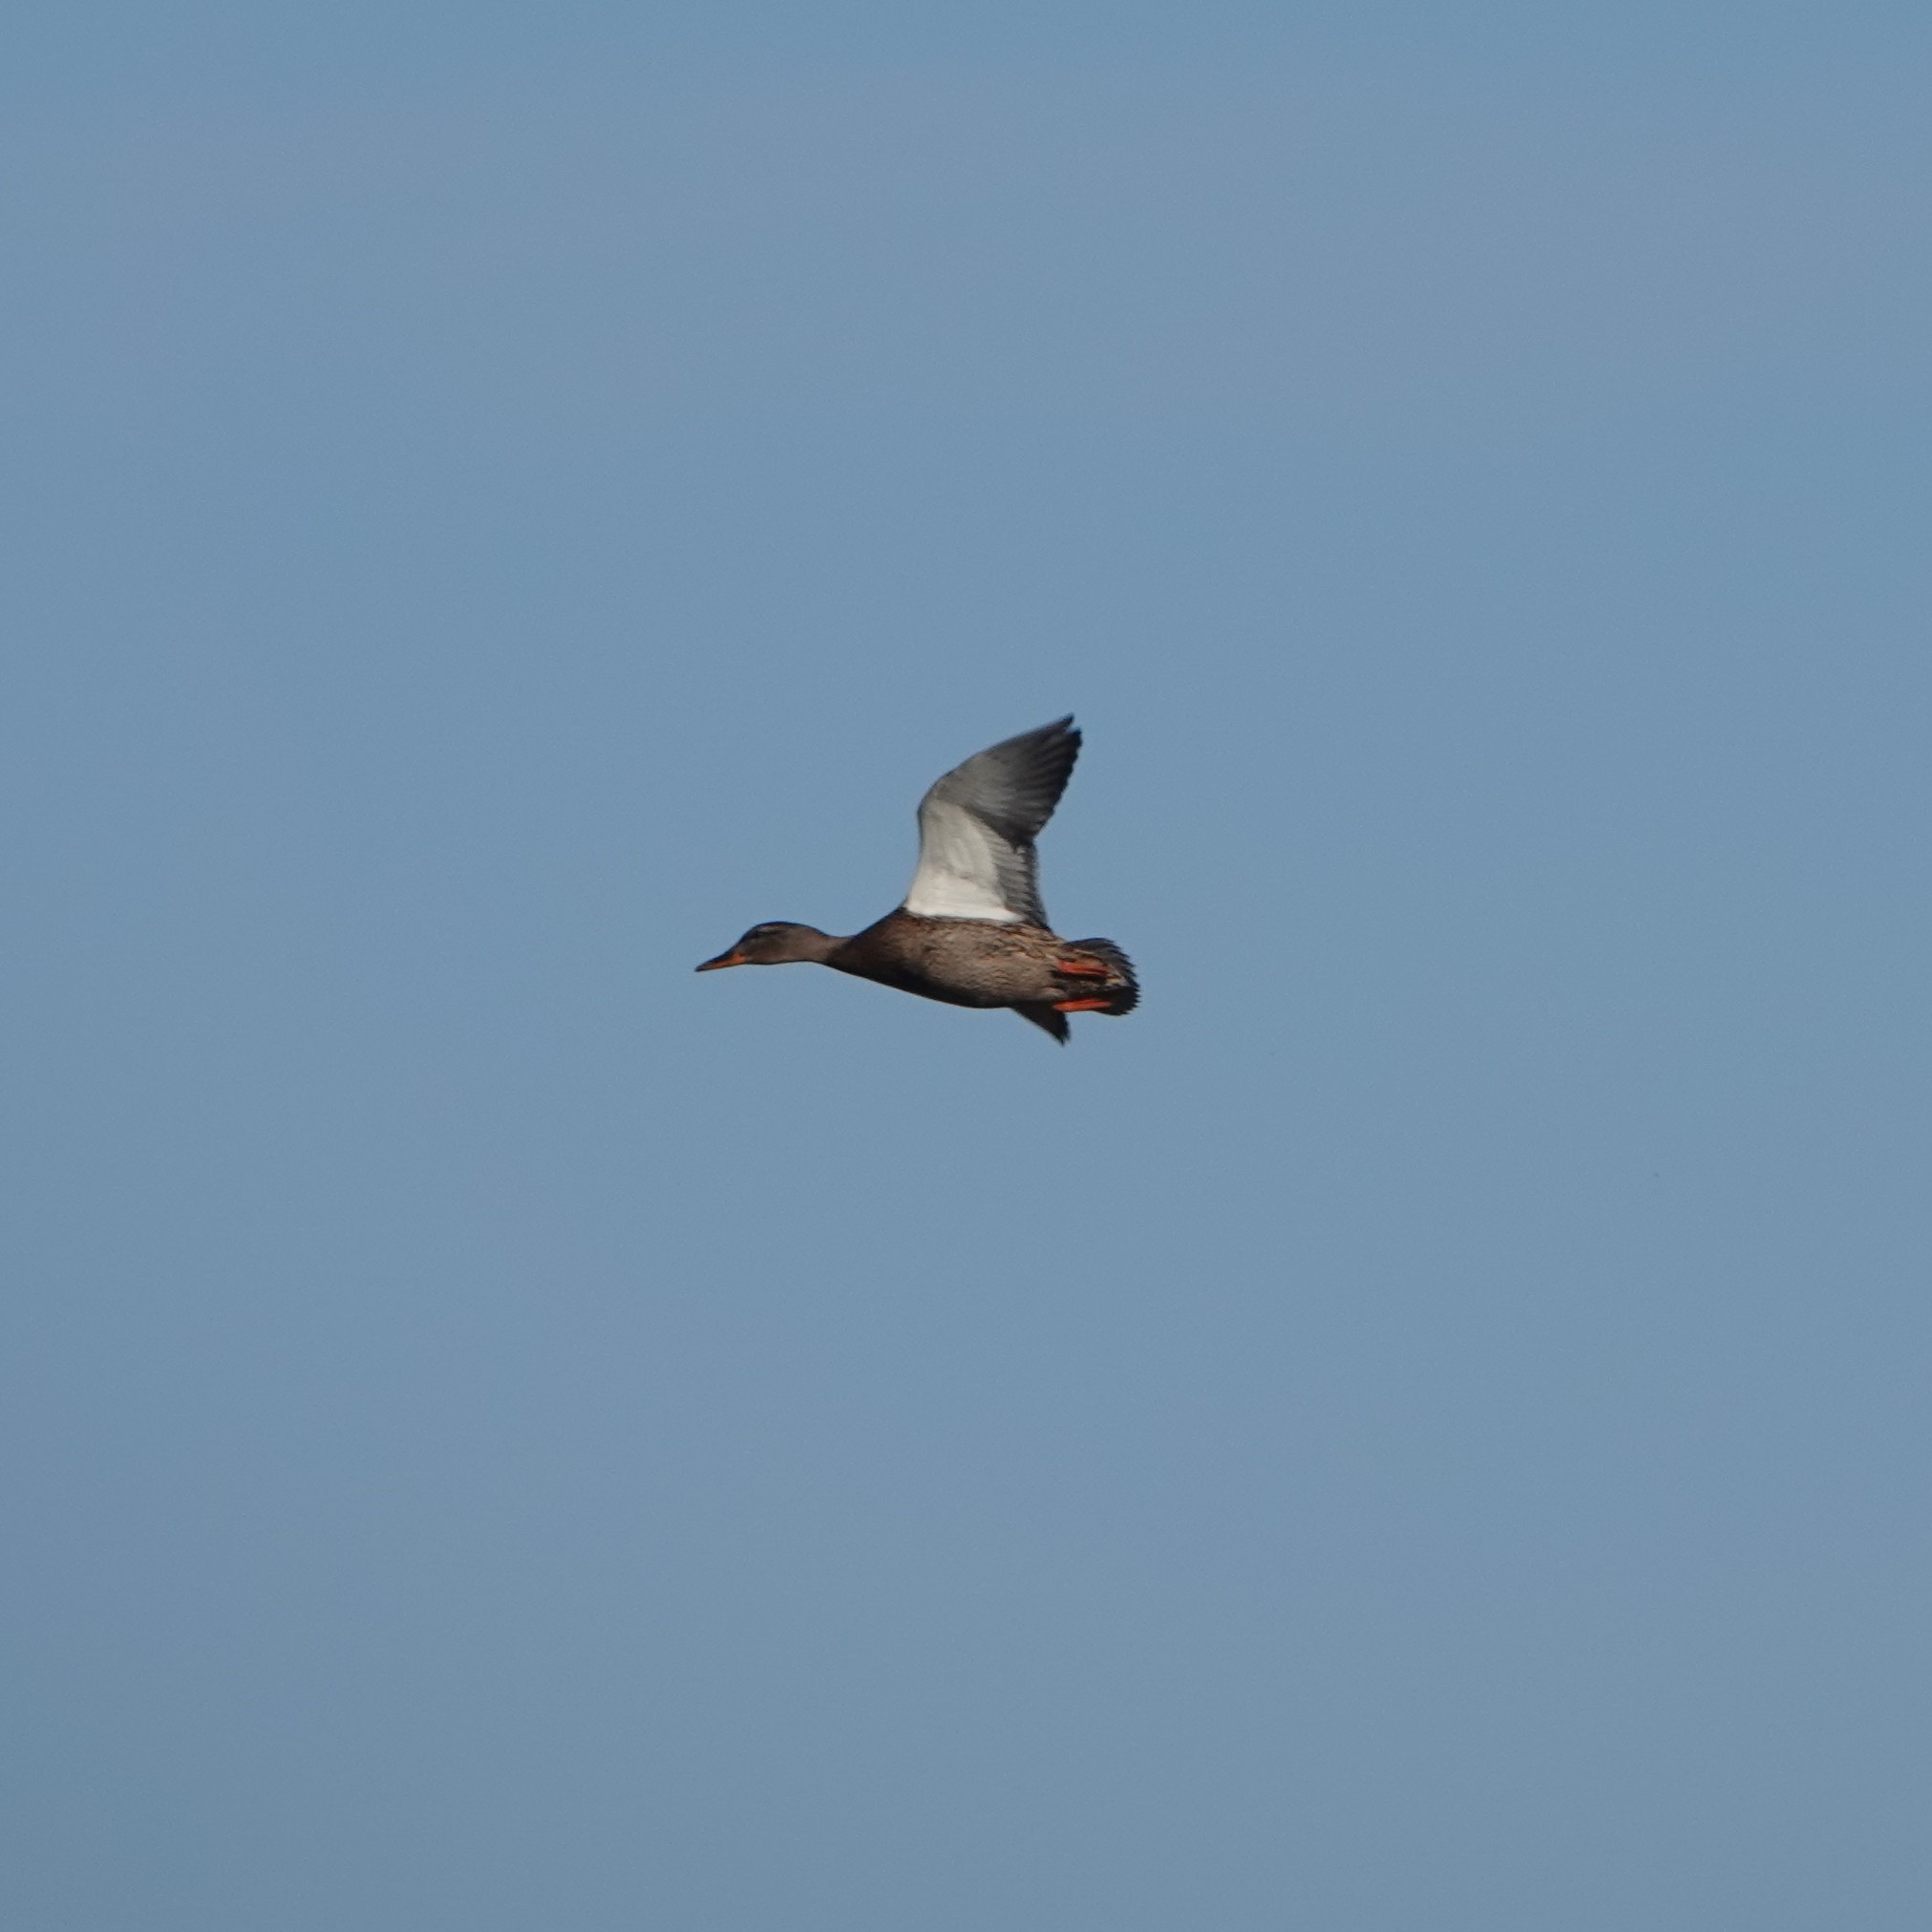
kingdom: Animalia
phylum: Chordata
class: Aves
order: Anseriformes
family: Anatidae
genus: Anas
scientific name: Anas platyrhynchos
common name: Mallard
